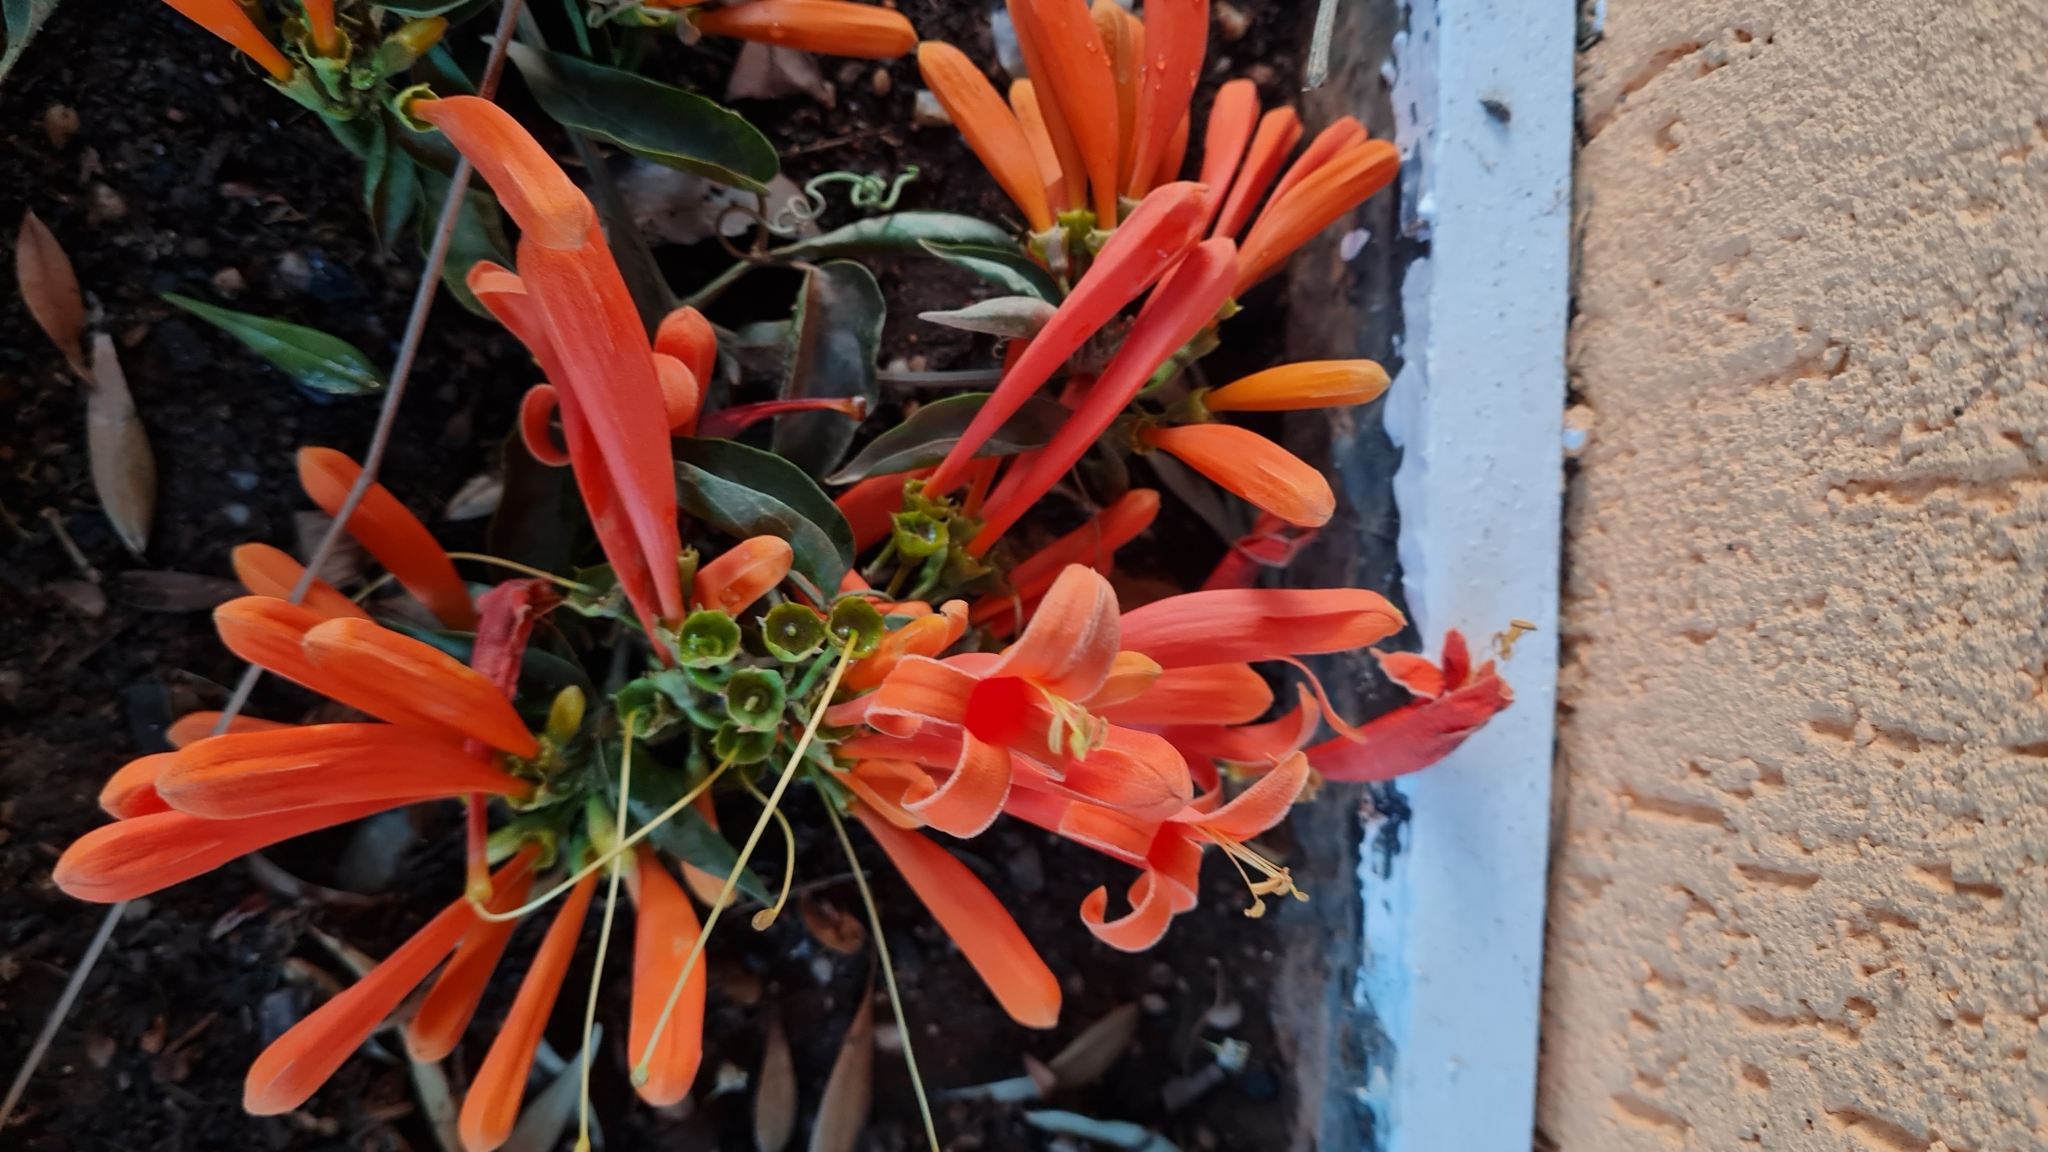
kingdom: Plantae
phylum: Tracheophyta
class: Magnoliopsida
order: Lamiales
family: Bignoniaceae
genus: Pyrostegia
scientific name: Pyrostegia venusta
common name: Flamevine
